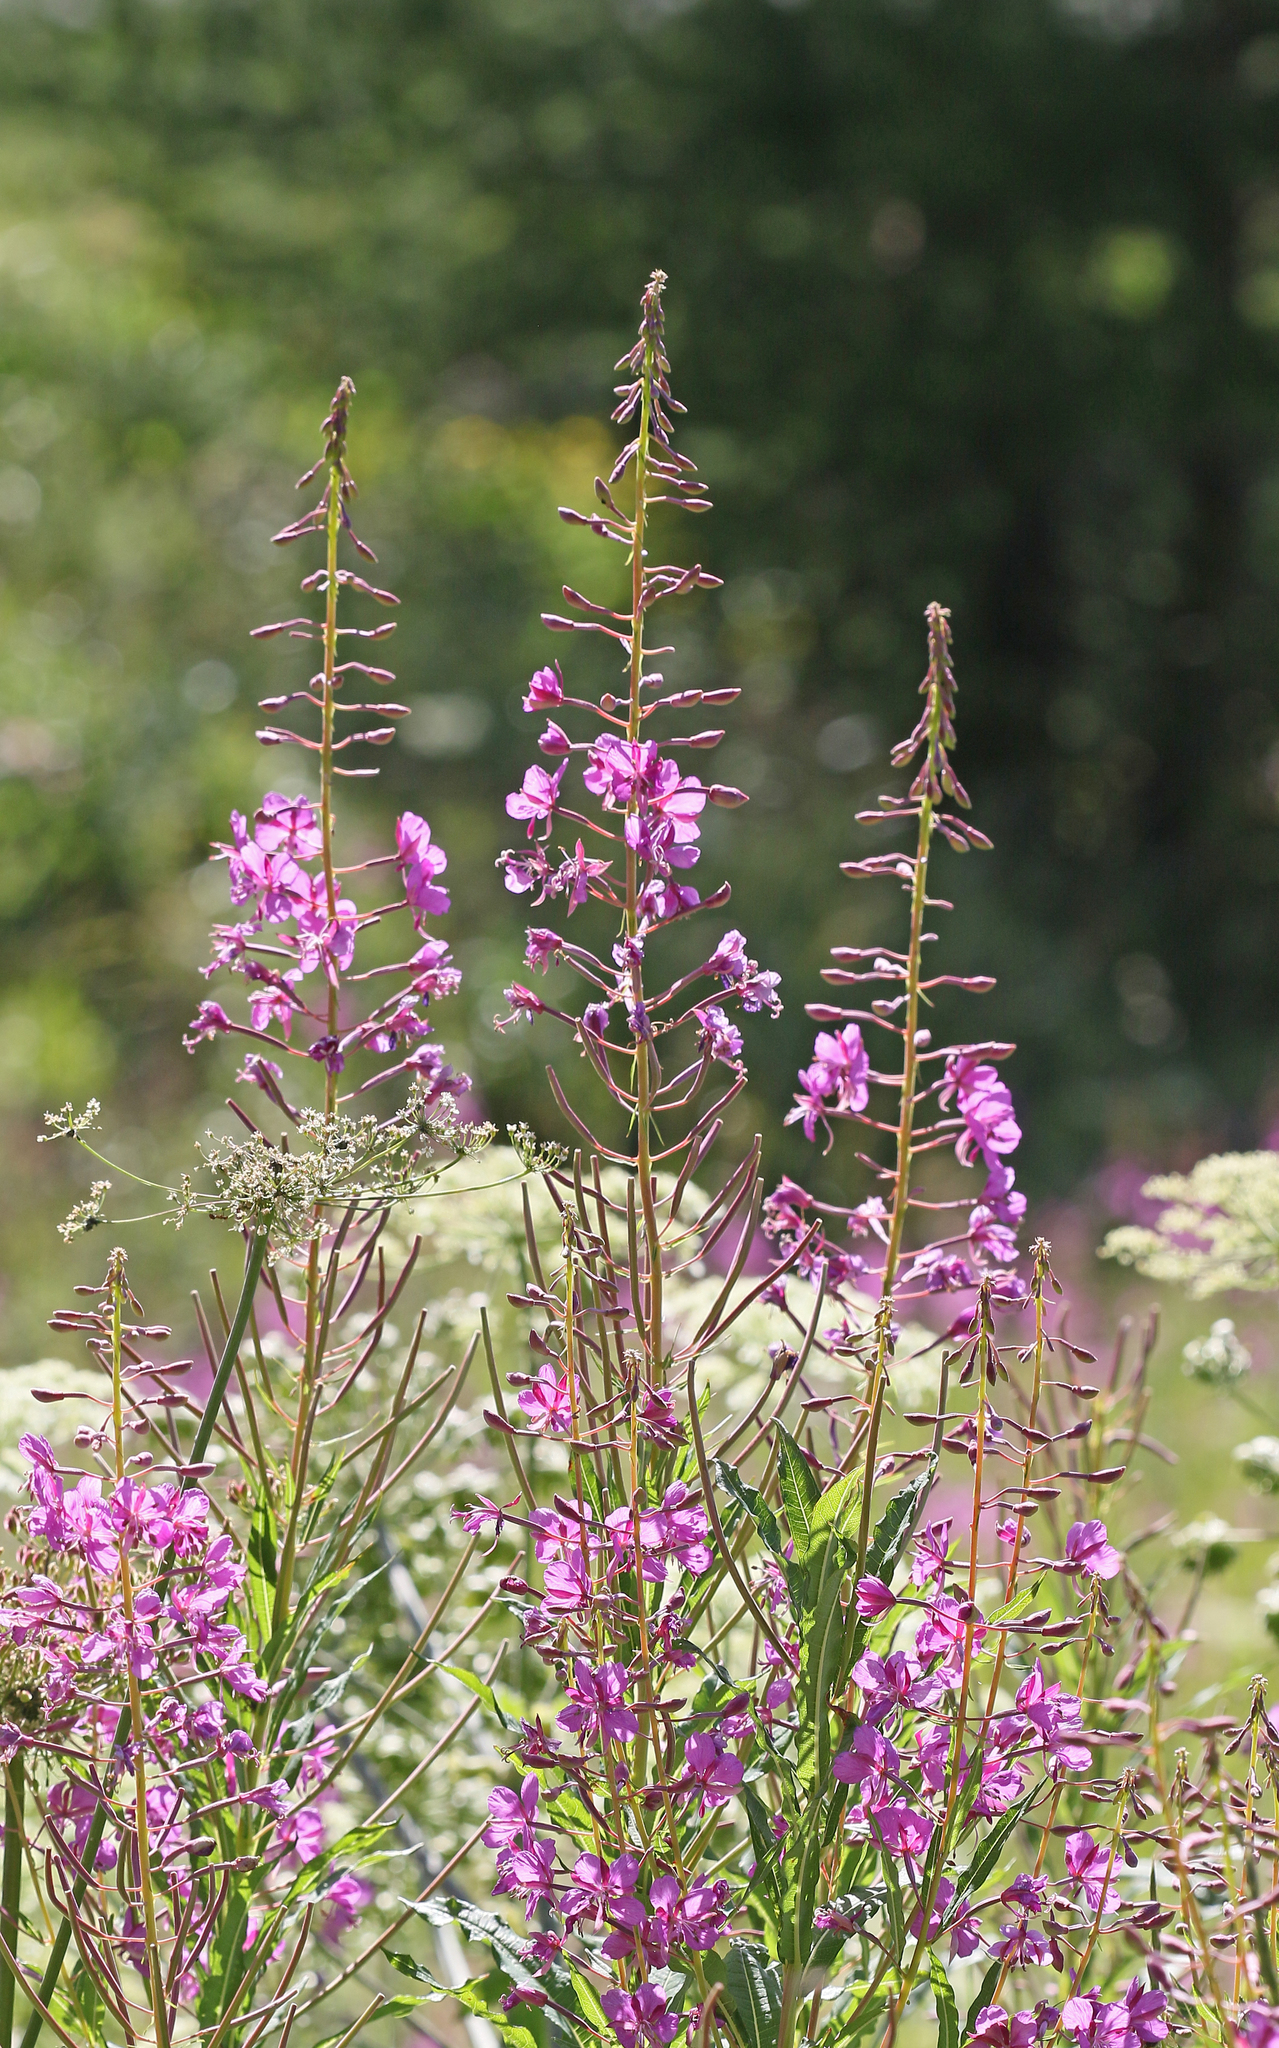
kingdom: Plantae
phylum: Tracheophyta
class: Magnoliopsida
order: Myrtales
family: Onagraceae
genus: Chamaenerion
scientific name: Chamaenerion angustifolium
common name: Fireweed
